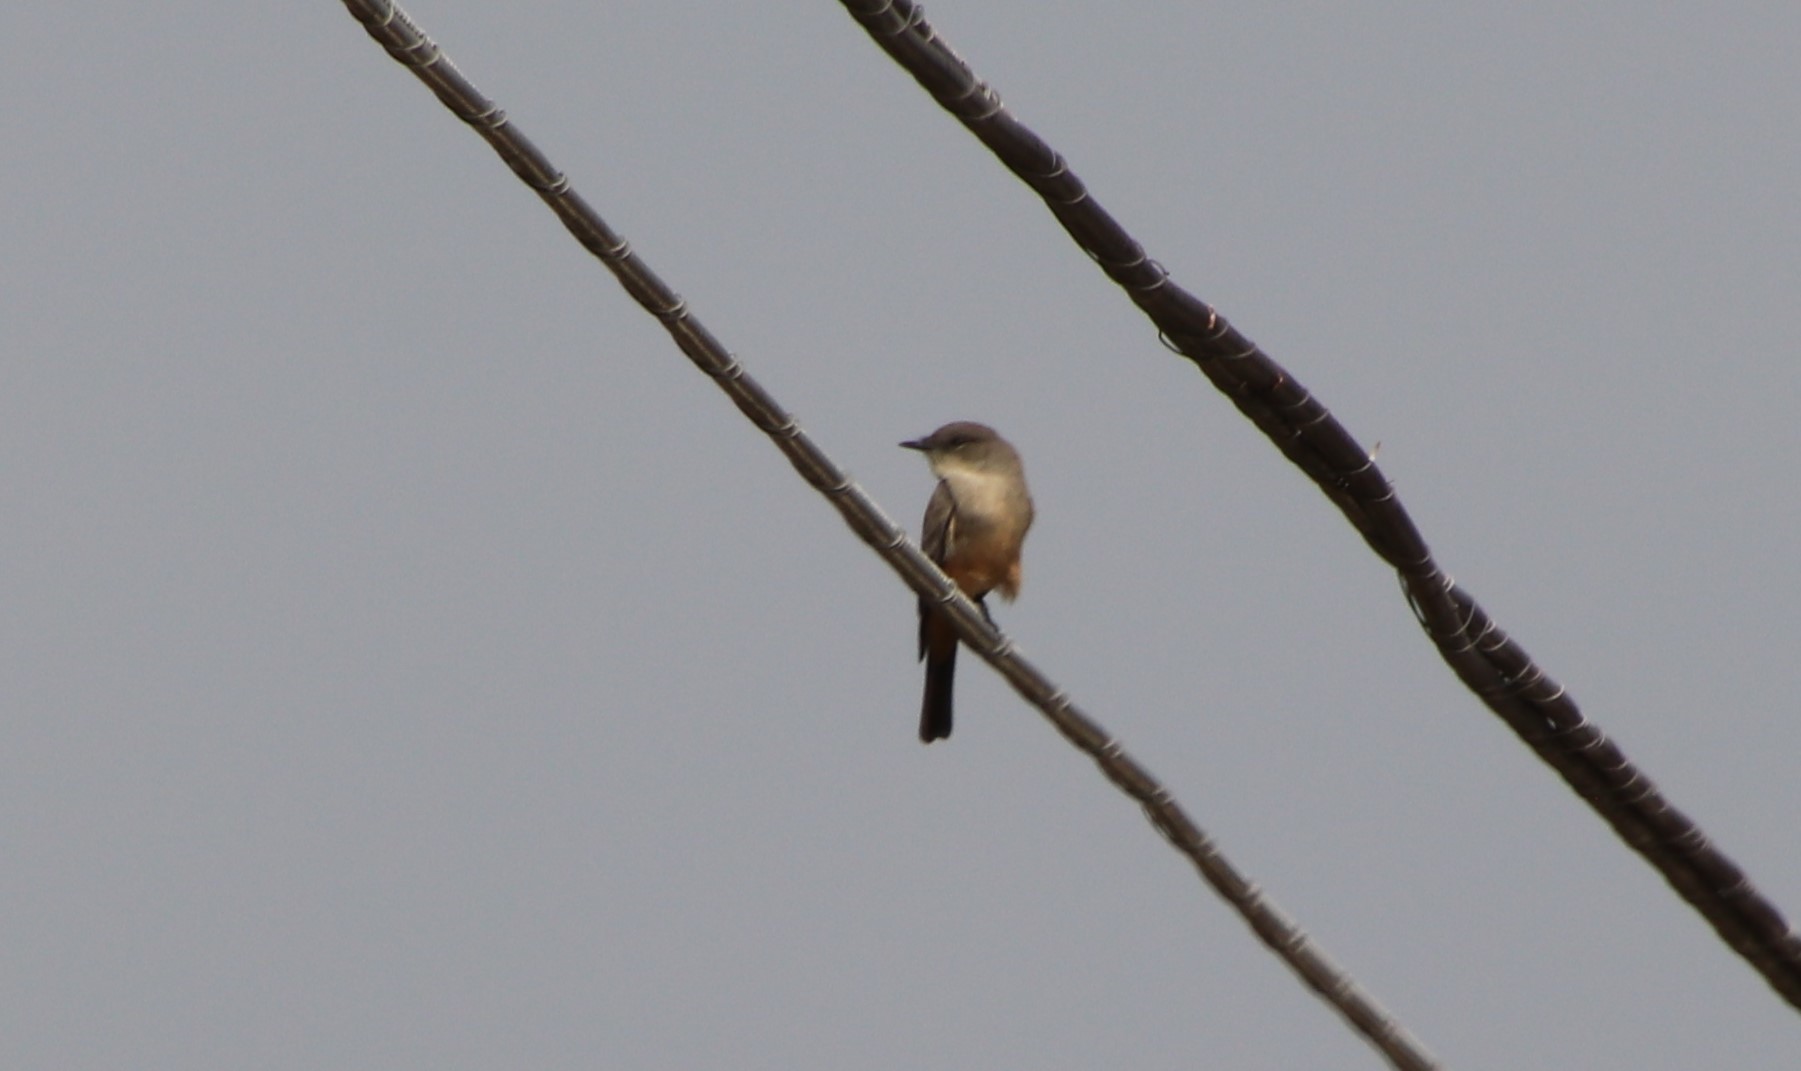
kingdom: Animalia
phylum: Chordata
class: Aves
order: Passeriformes
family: Tyrannidae
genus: Sayornis
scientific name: Sayornis saya
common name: Say's phoebe
